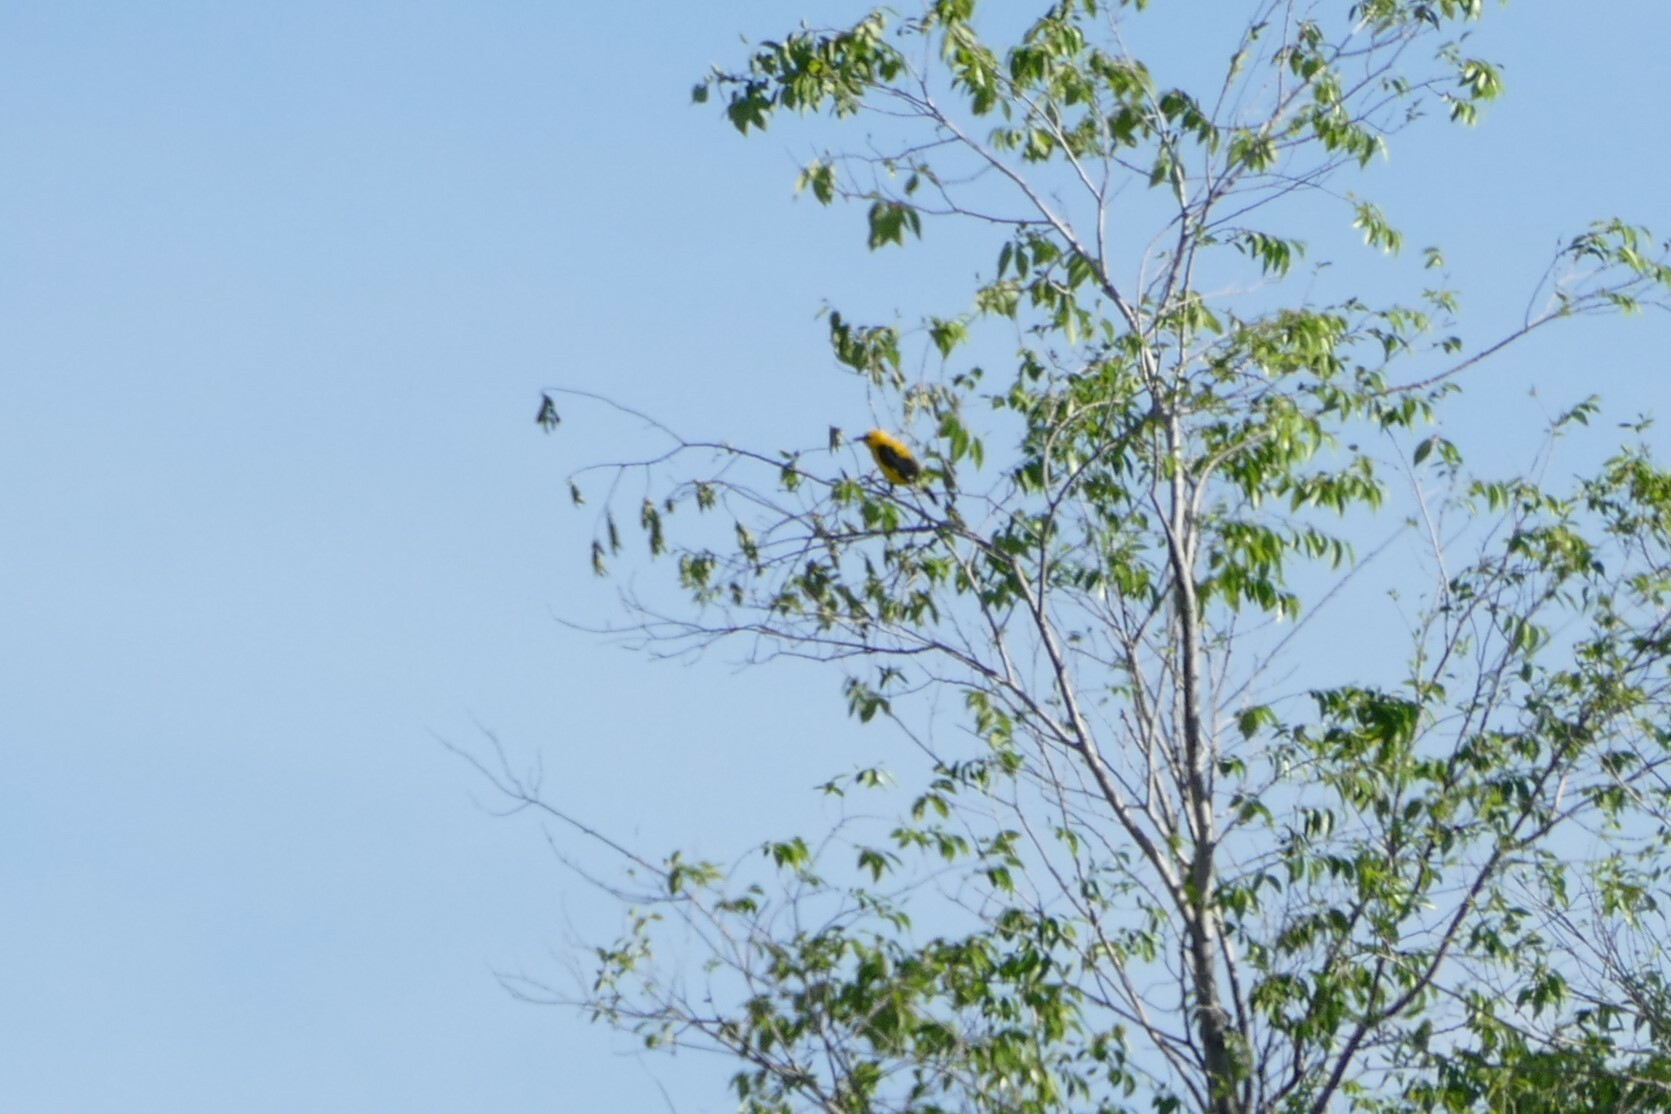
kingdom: Animalia
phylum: Chordata
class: Aves
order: Passeriformes
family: Oriolidae
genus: Oriolus
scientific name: Oriolus oriolus
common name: Eurasian golden oriole
